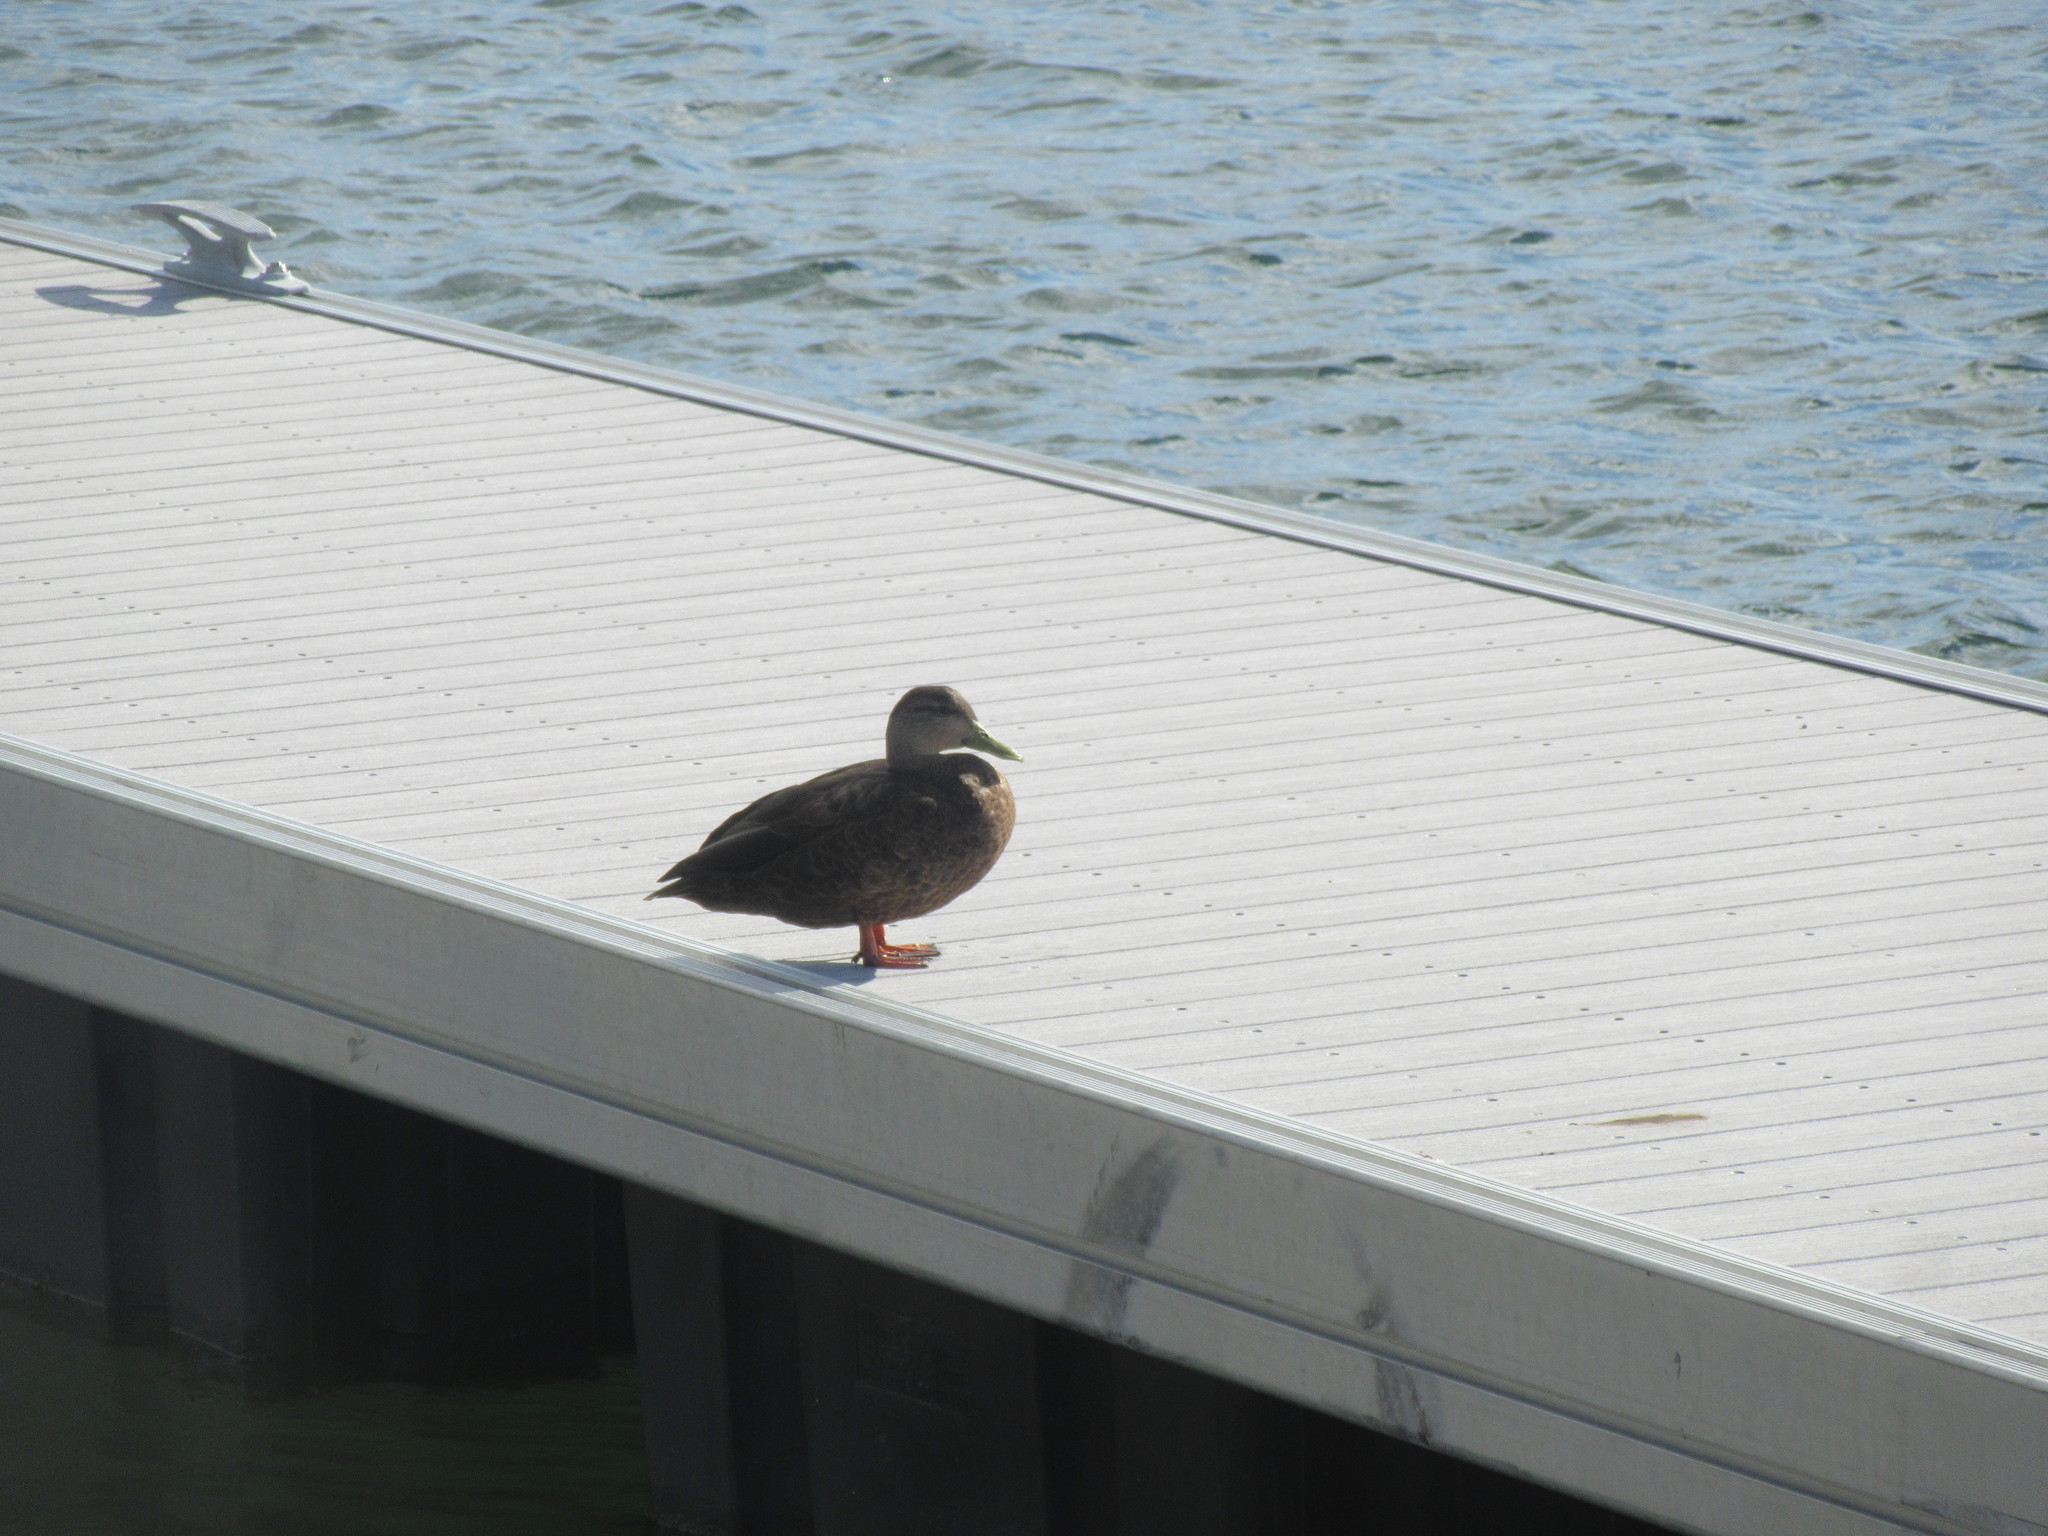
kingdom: Animalia
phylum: Chordata
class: Aves
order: Anseriformes
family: Anatidae
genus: Anas
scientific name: Anas rubripes
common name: American black duck
